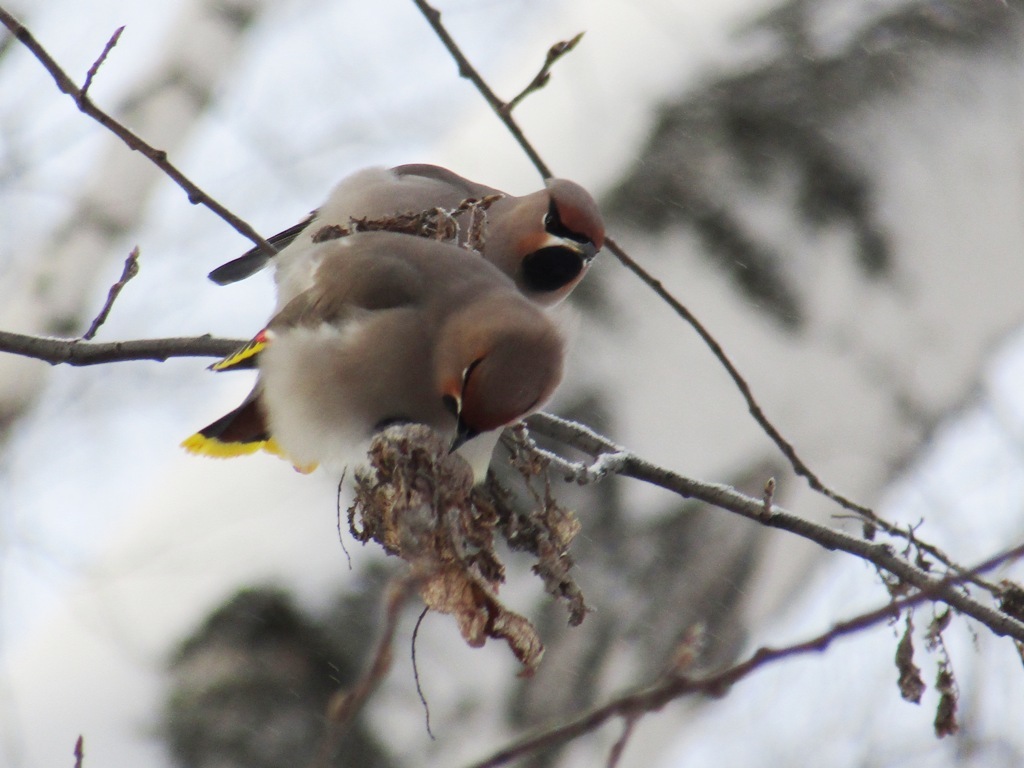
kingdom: Animalia
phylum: Chordata
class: Aves
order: Passeriformes
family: Bombycillidae
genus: Bombycilla
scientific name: Bombycilla garrulus
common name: Bohemian waxwing
